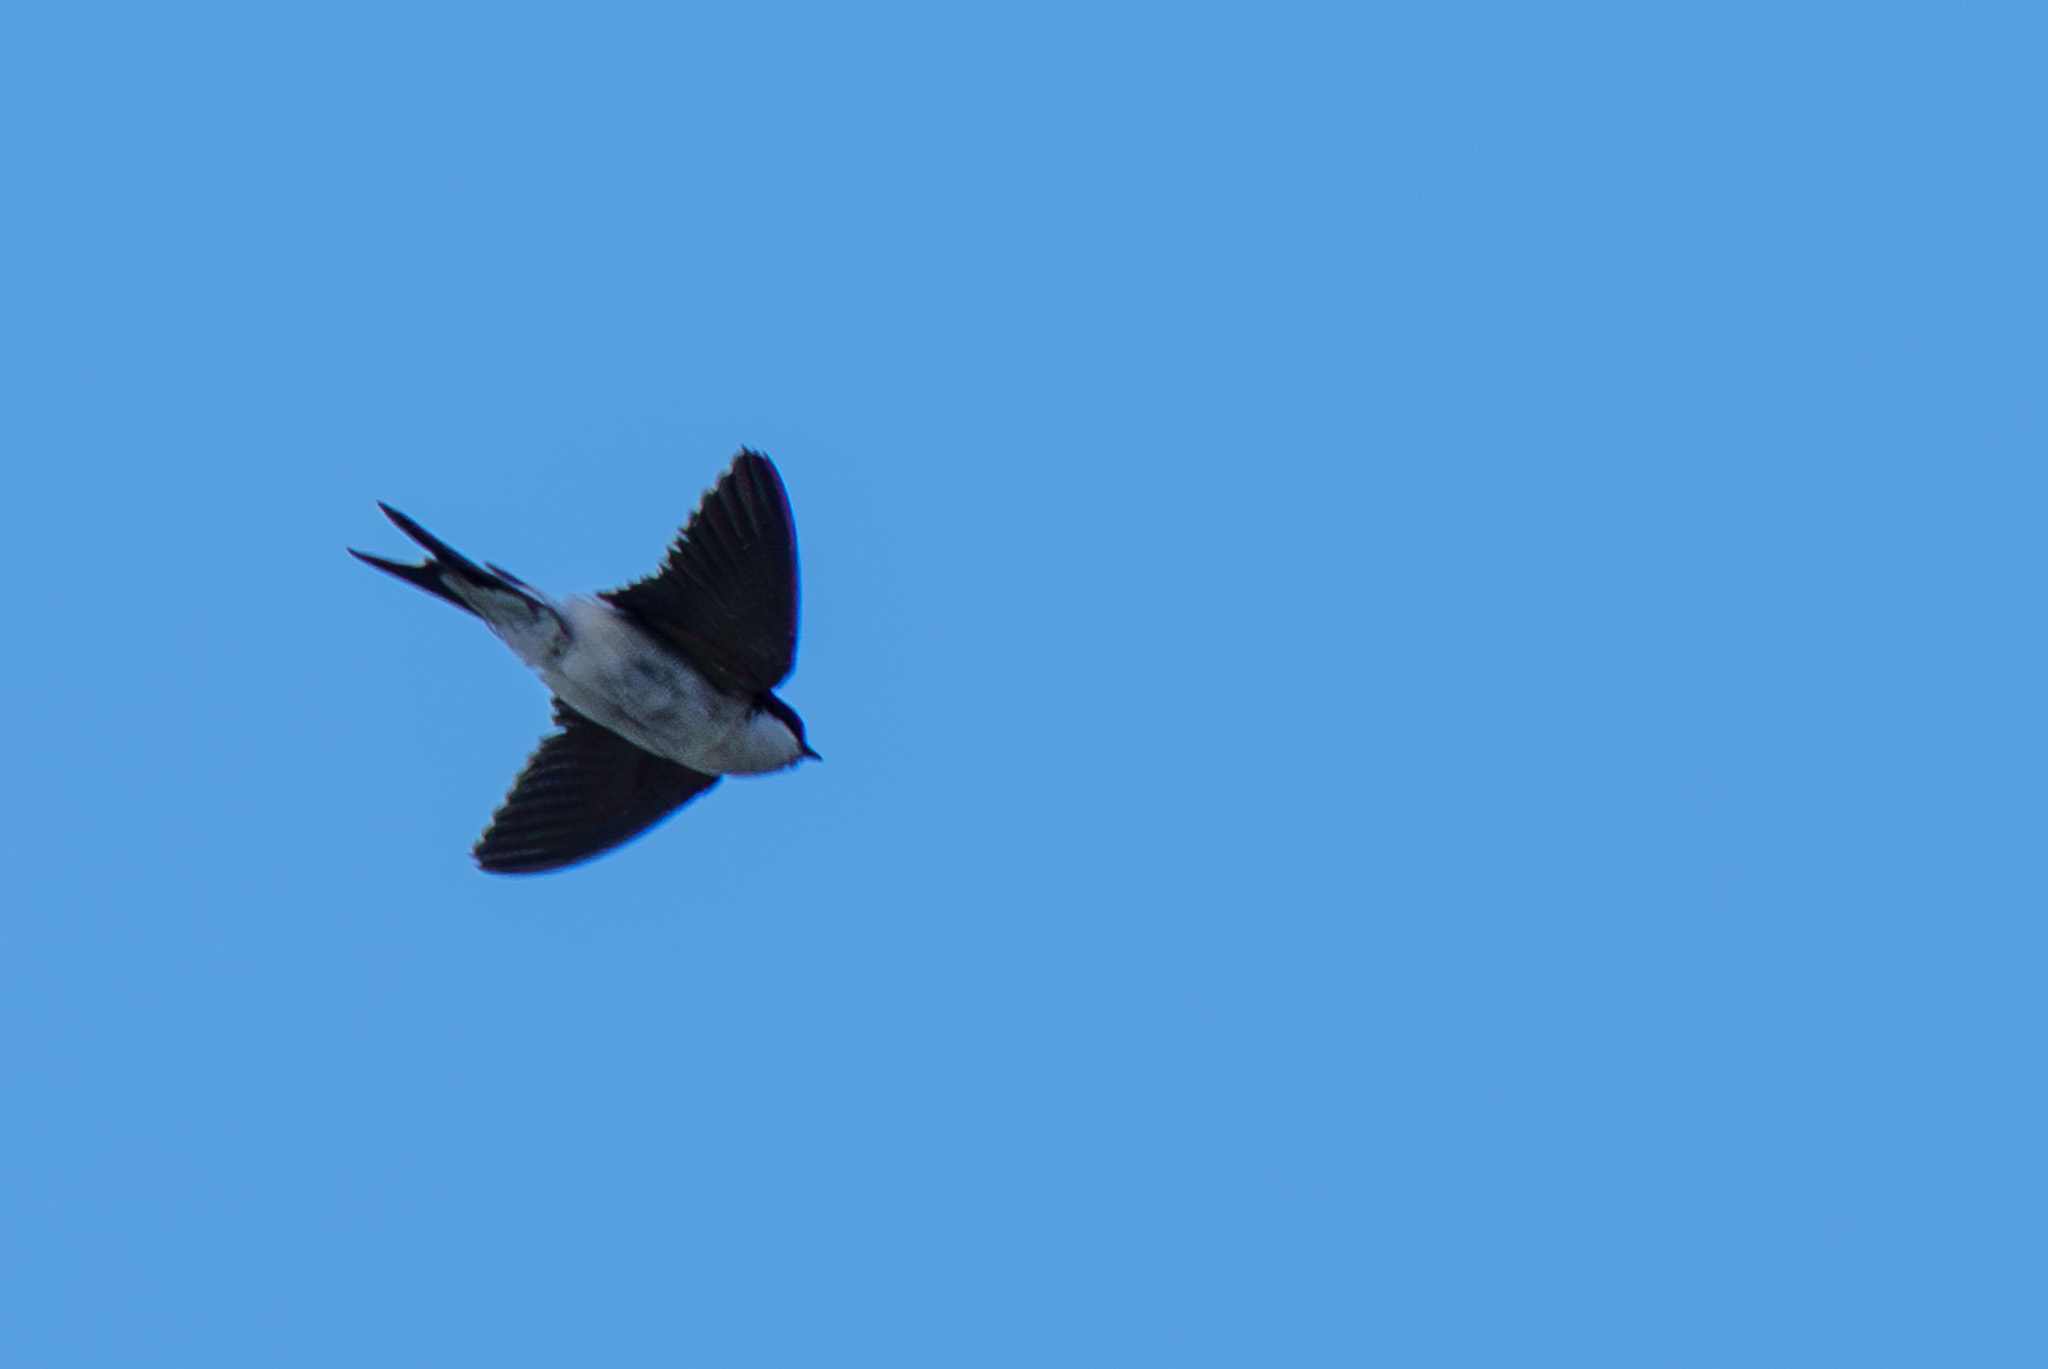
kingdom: Animalia
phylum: Chordata
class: Aves
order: Passeriformes
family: Hirundinidae
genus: Delichon
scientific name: Delichon urbicum
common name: Common house martin
